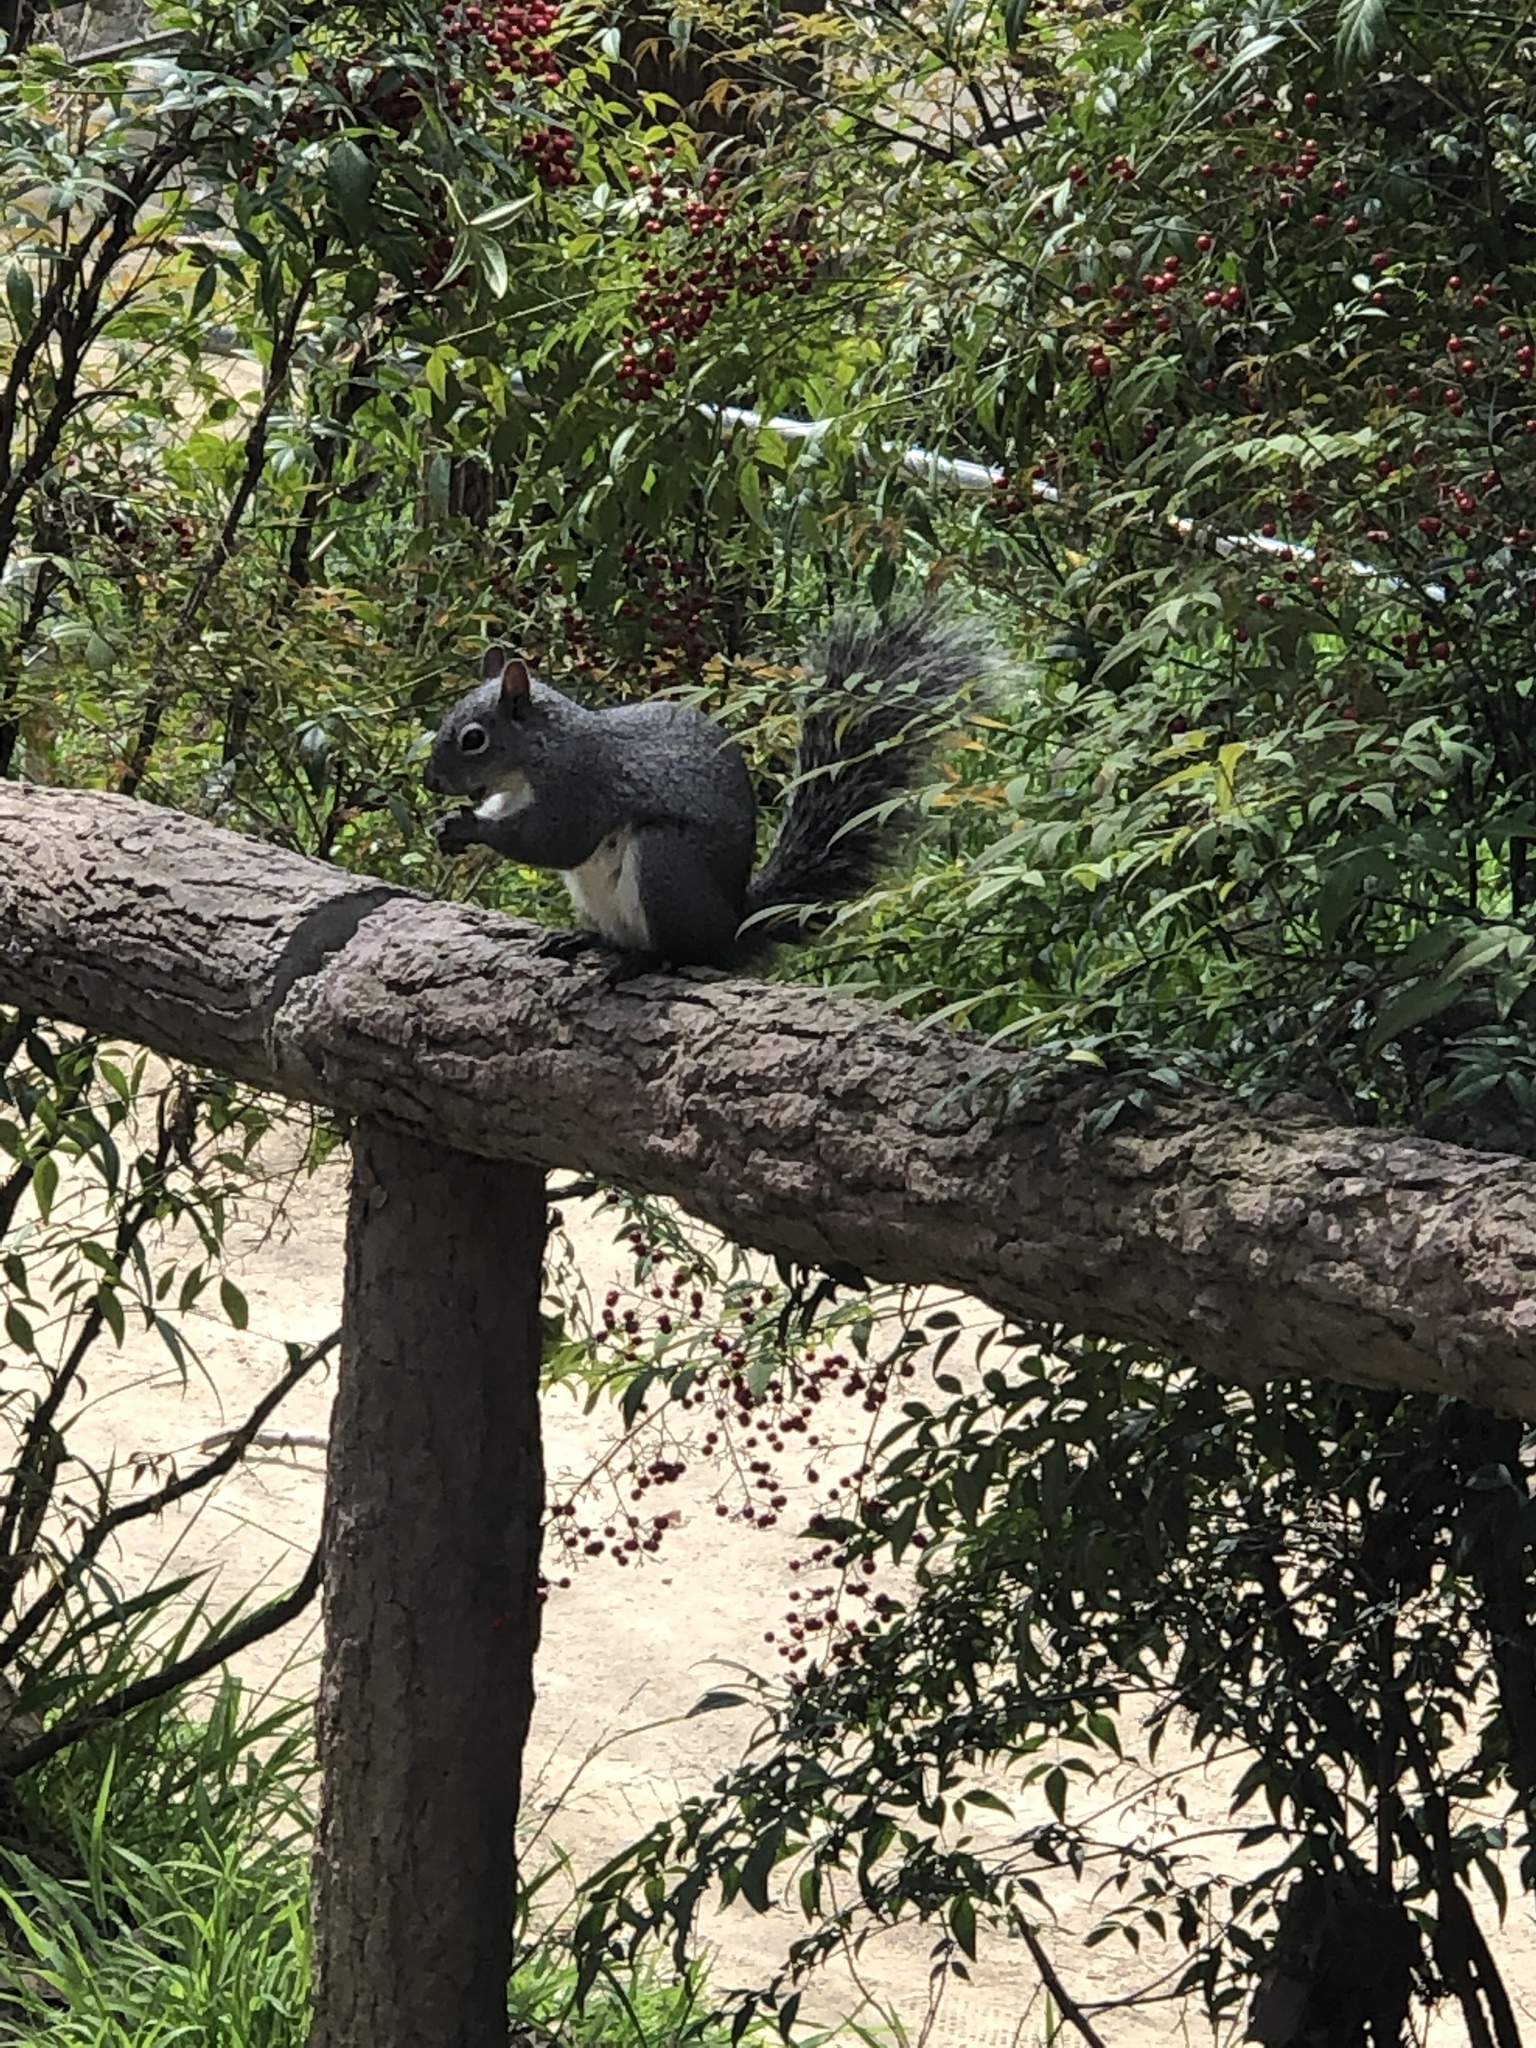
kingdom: Animalia
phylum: Chordata
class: Mammalia
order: Rodentia
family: Sciuridae
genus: Sciurus
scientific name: Sciurus griseus
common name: Western gray squirrel
